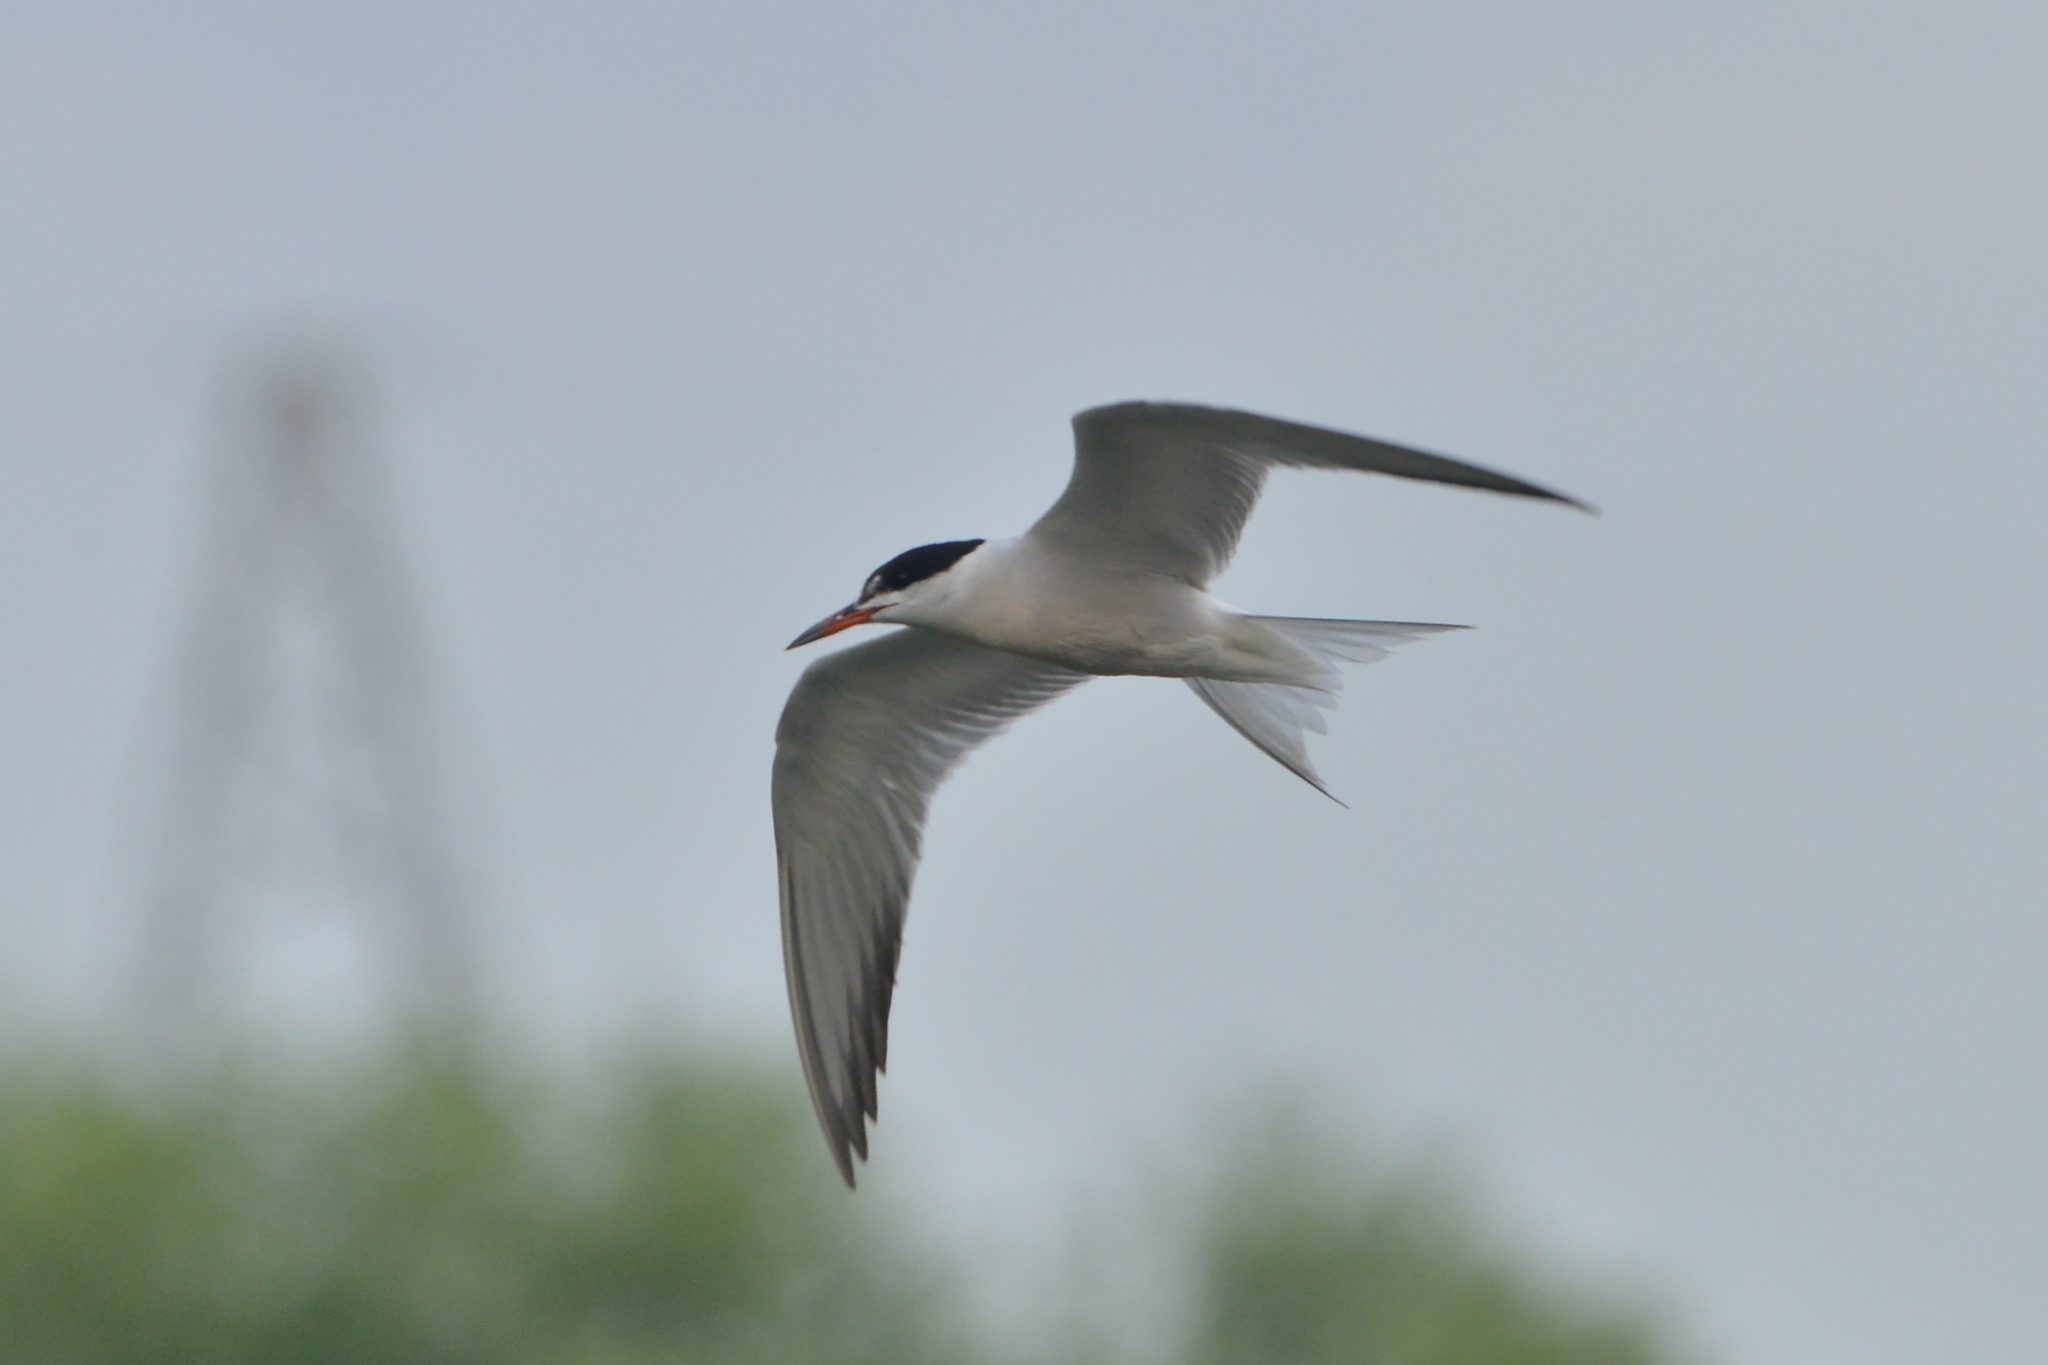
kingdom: Animalia
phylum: Chordata
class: Aves
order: Charadriiformes
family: Laridae
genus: Sterna
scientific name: Sterna hirundo
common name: Common tern
